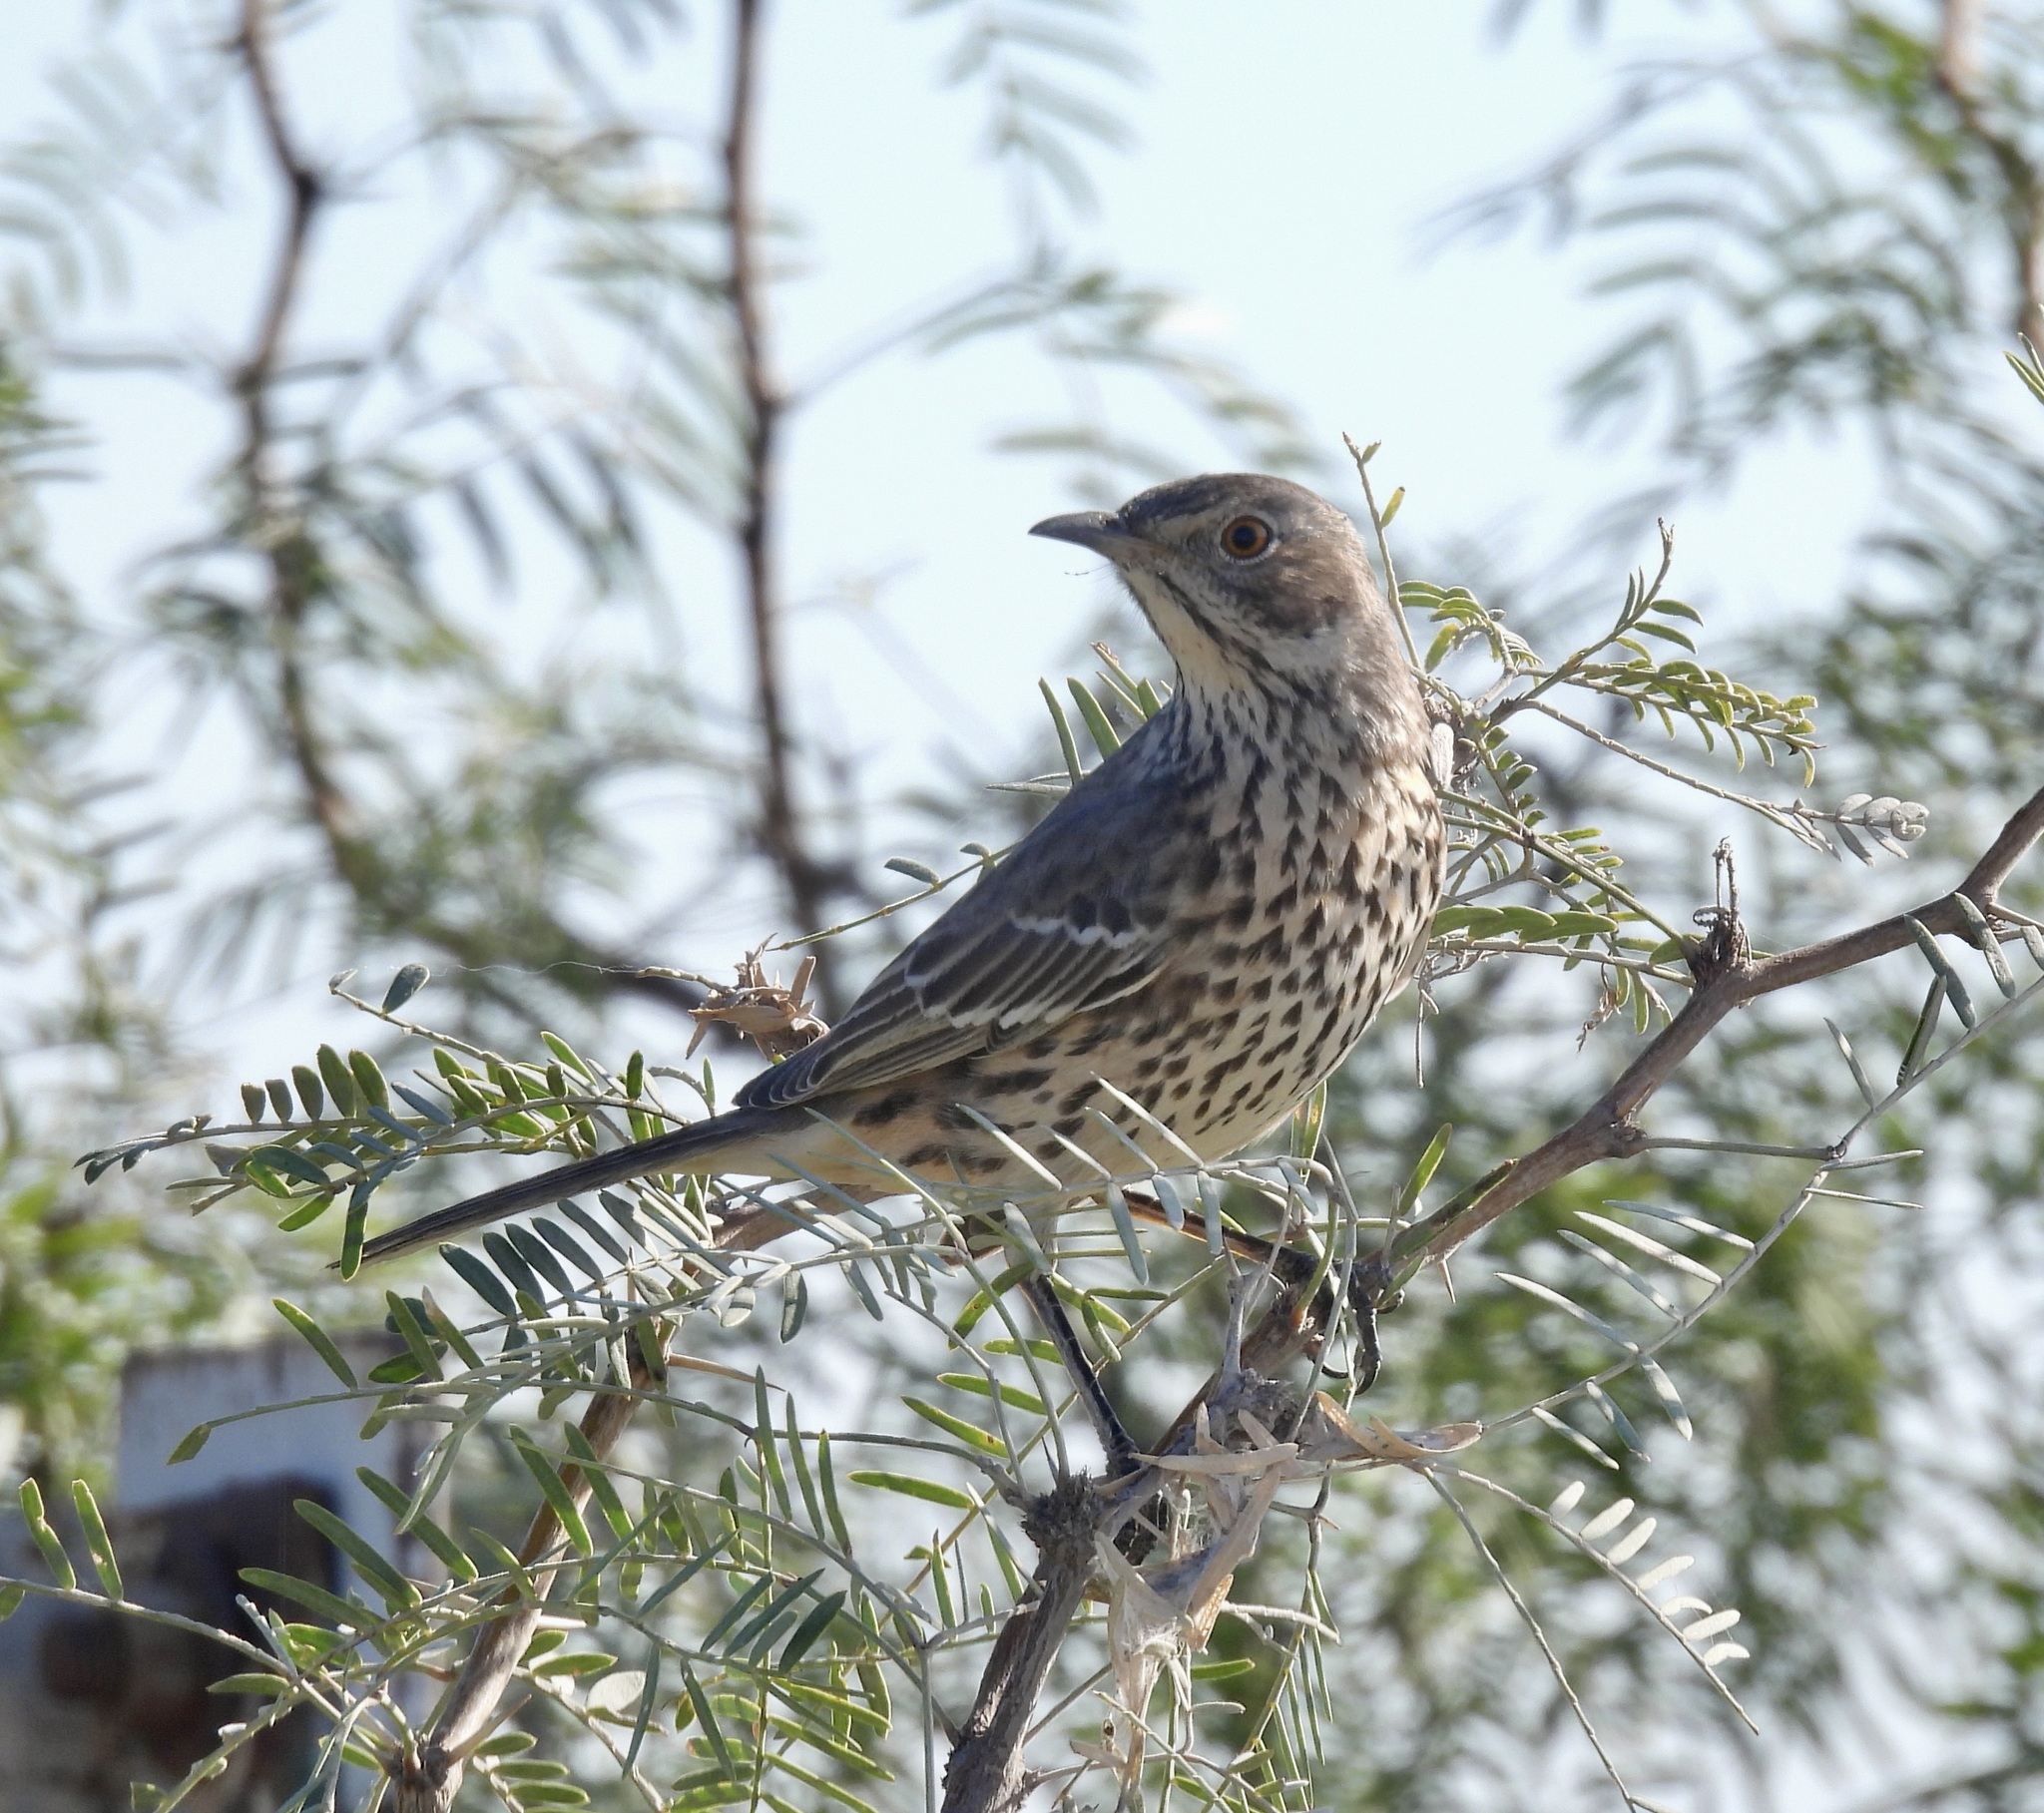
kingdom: Animalia
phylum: Chordata
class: Aves
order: Passeriformes
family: Mimidae
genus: Oreoscoptes
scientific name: Oreoscoptes montanus
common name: Sage thrasher
